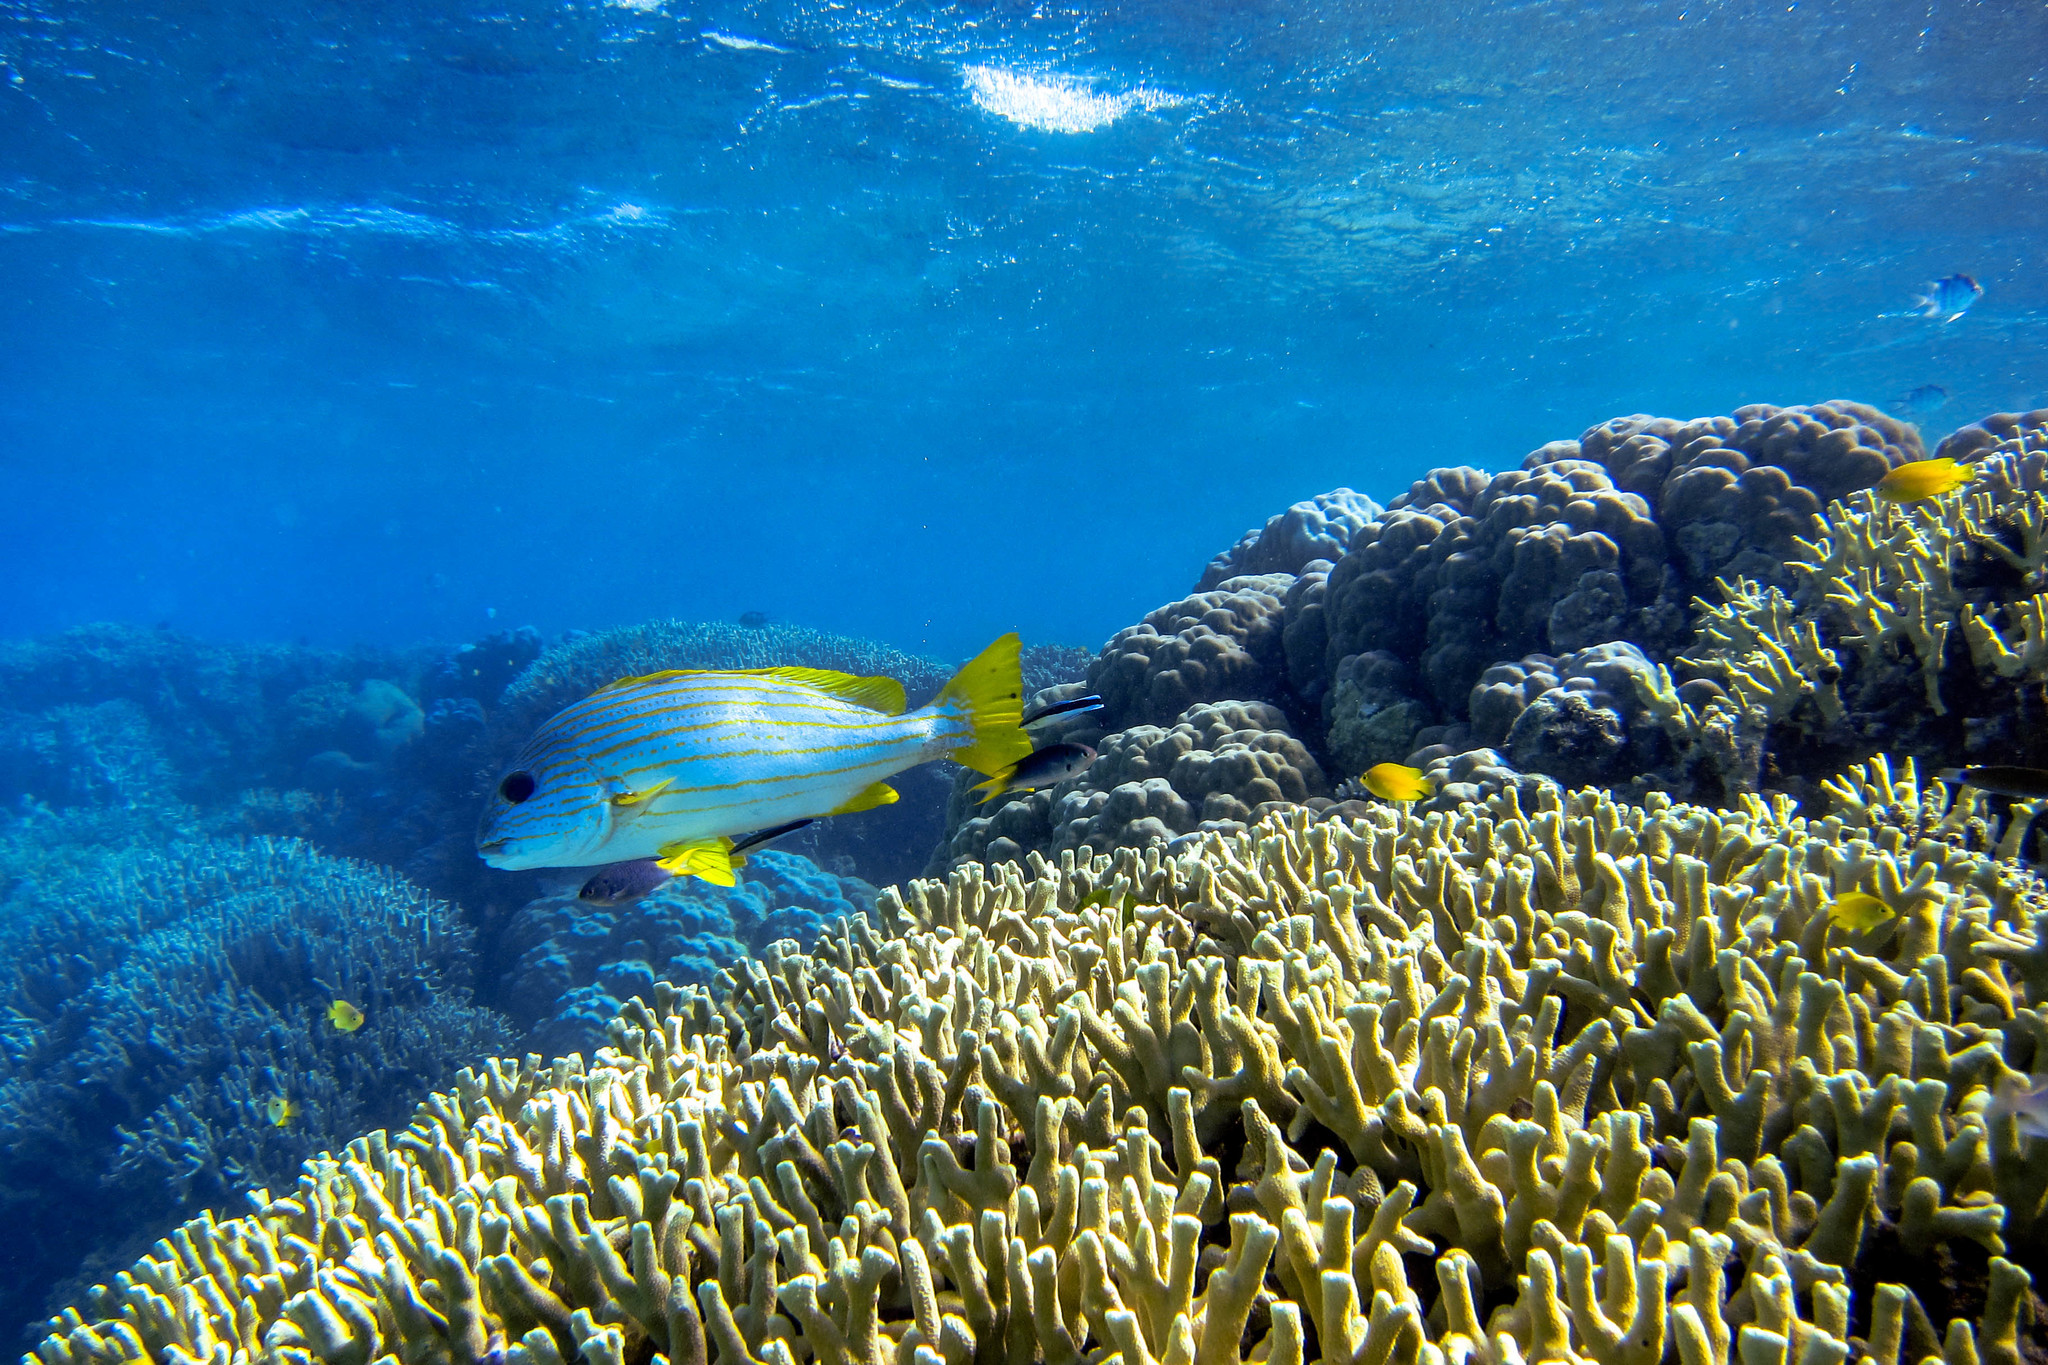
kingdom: Animalia
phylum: Chordata
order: Perciformes
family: Labridae
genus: Labroides
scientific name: Labroides dimidiatus
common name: Blue diesel wrasse
